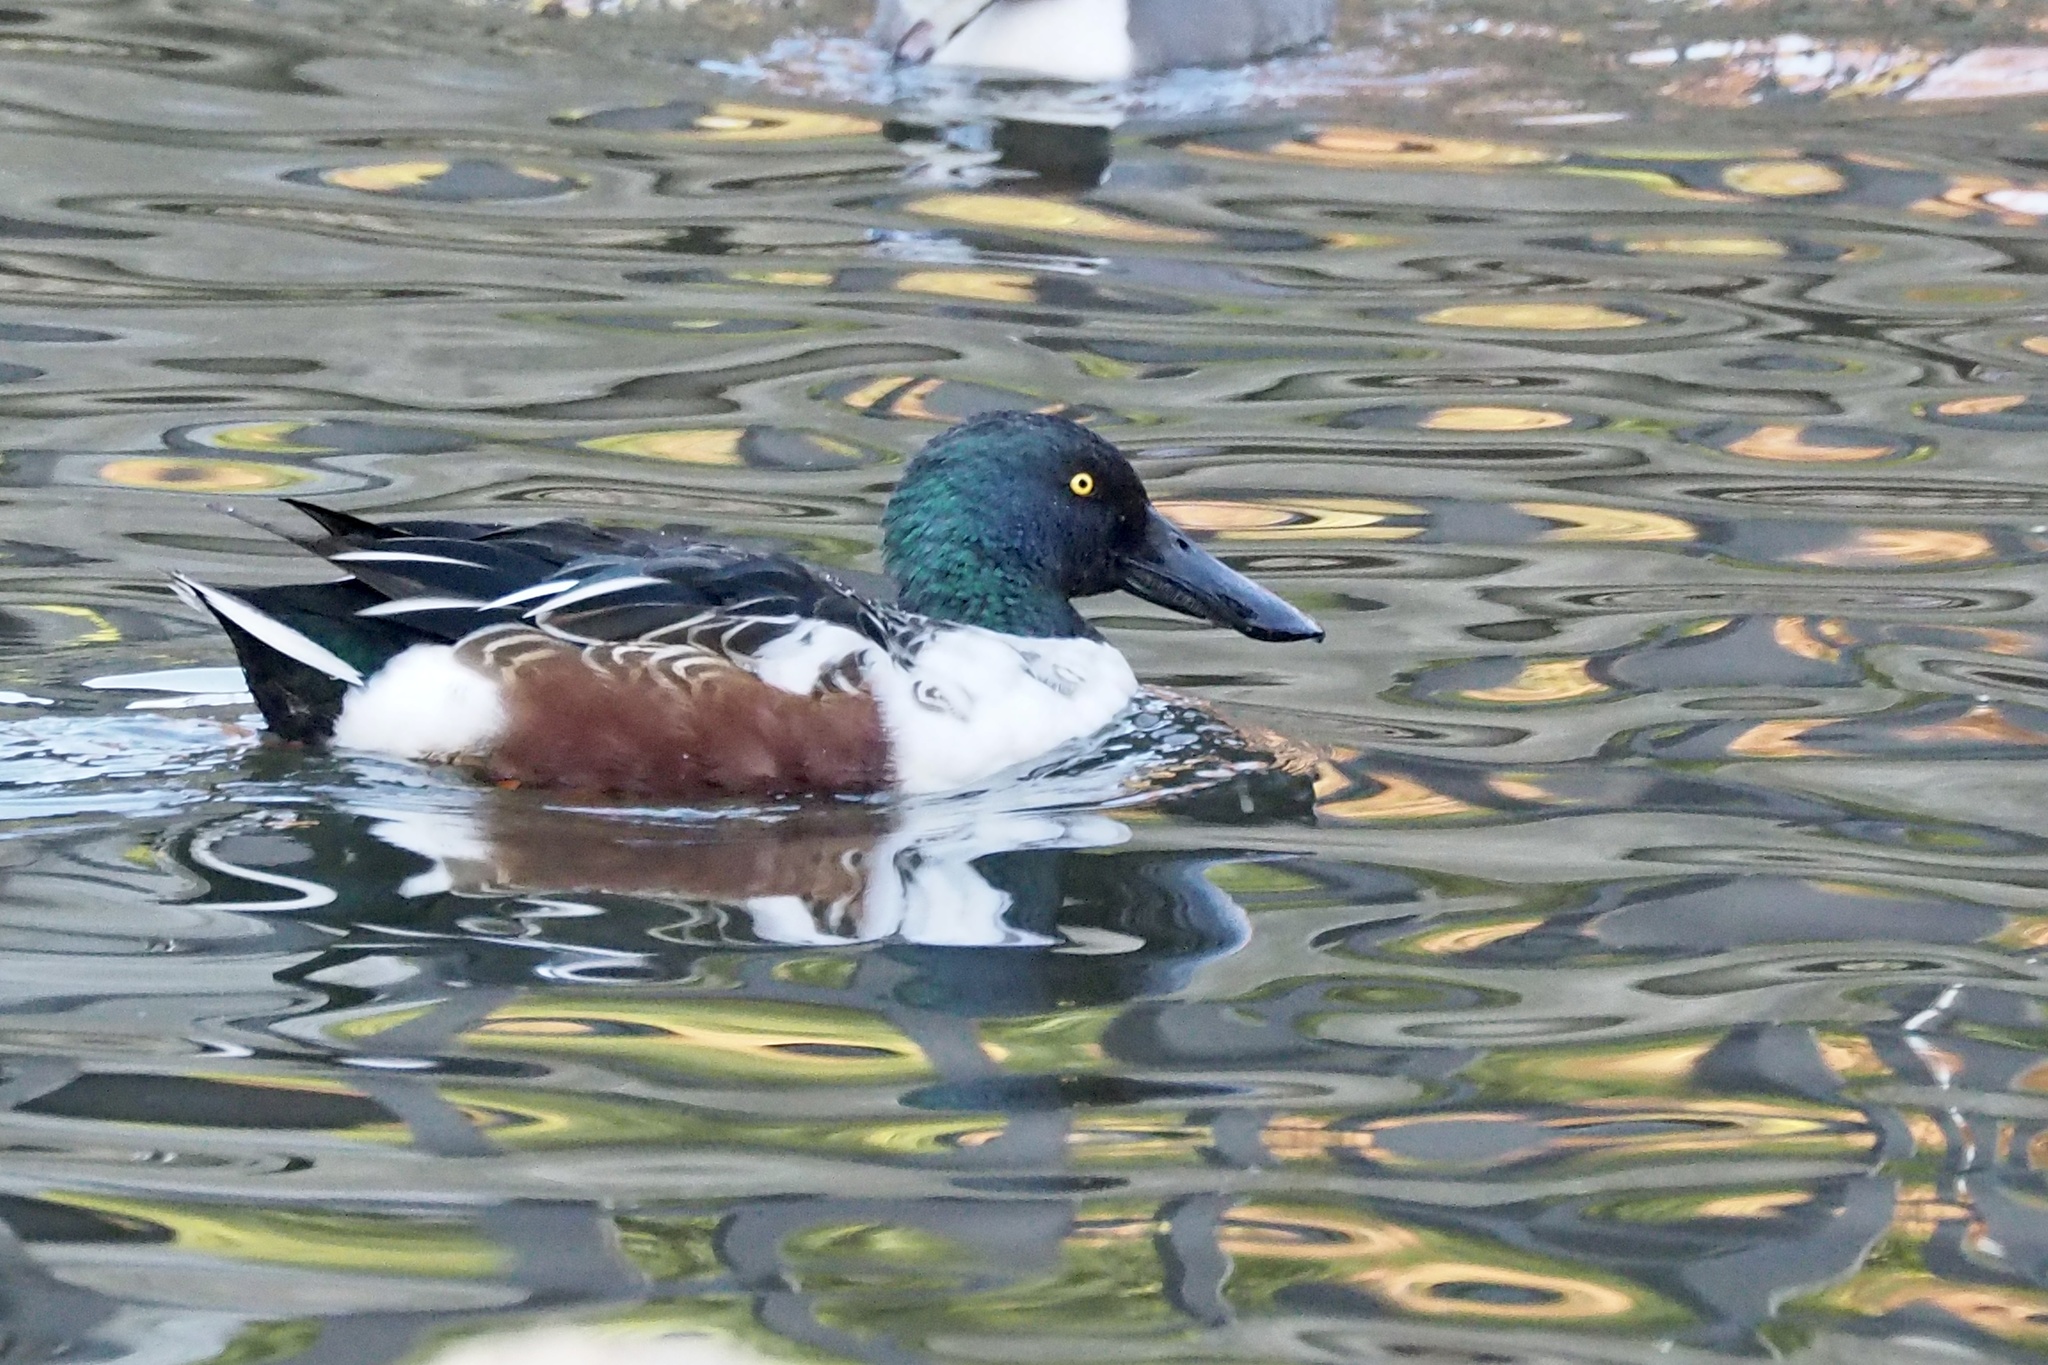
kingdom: Animalia
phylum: Chordata
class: Aves
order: Anseriformes
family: Anatidae
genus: Spatula
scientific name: Spatula clypeata
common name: Northern shoveler
